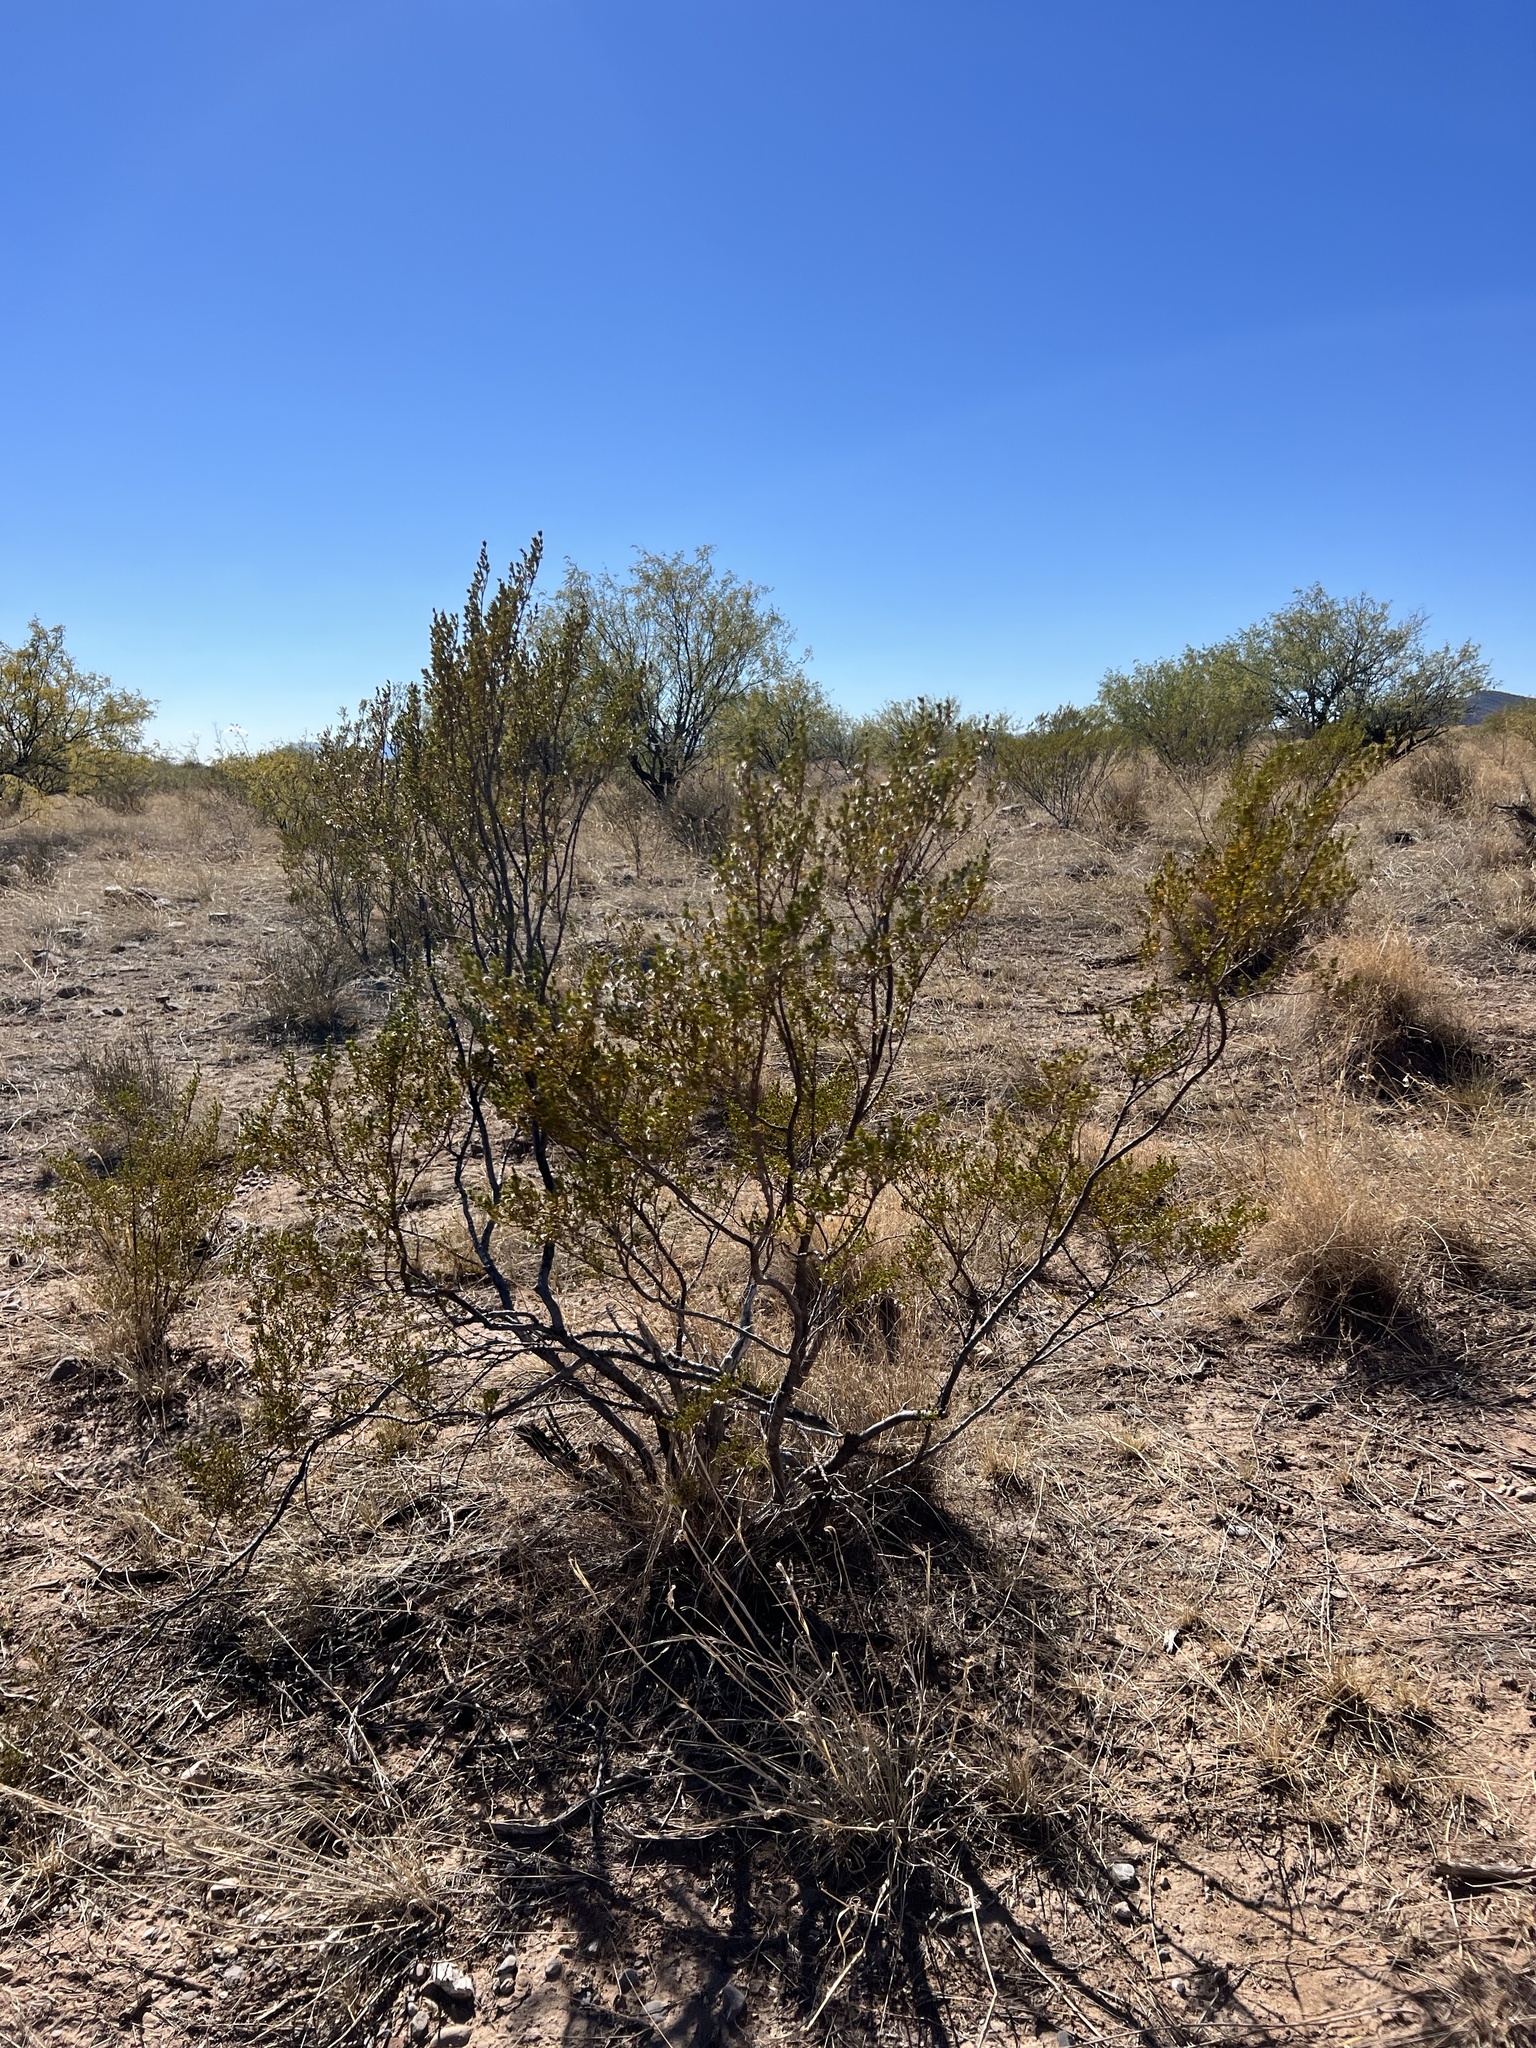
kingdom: Plantae
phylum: Tracheophyta
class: Magnoliopsida
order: Zygophyllales
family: Zygophyllaceae
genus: Larrea
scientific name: Larrea tridentata
